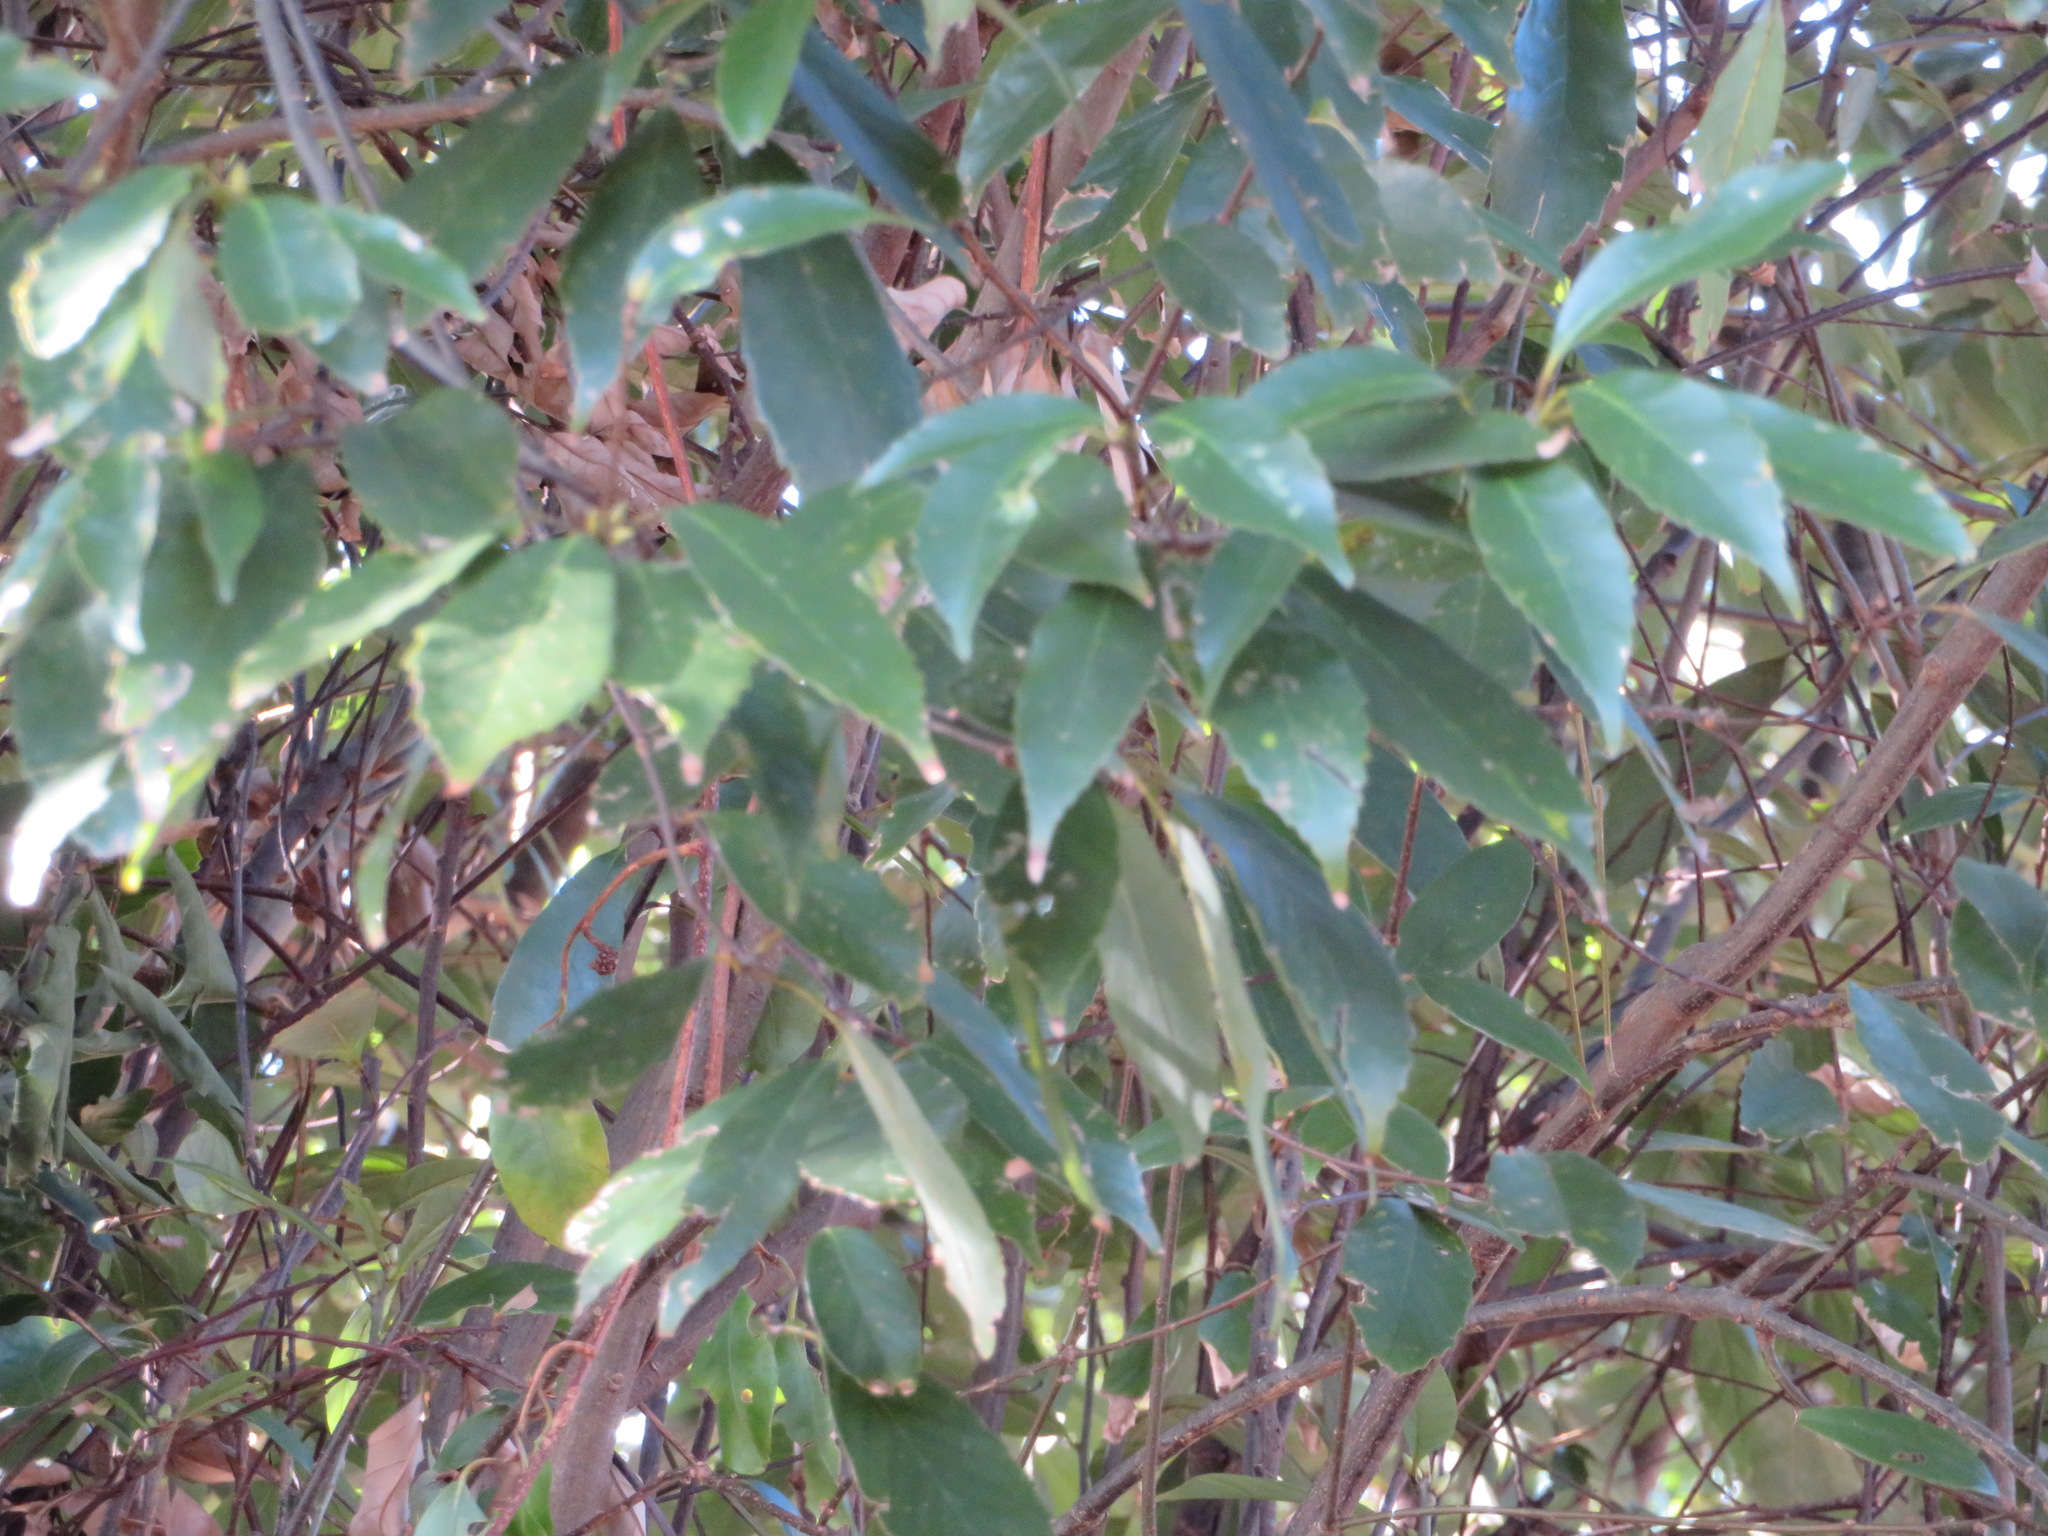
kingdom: Plantae
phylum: Tracheophyta
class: Magnoliopsida
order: Fagales
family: Fagaceae
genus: Quercus
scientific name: Quercus glauca
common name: Ring-cup oak
